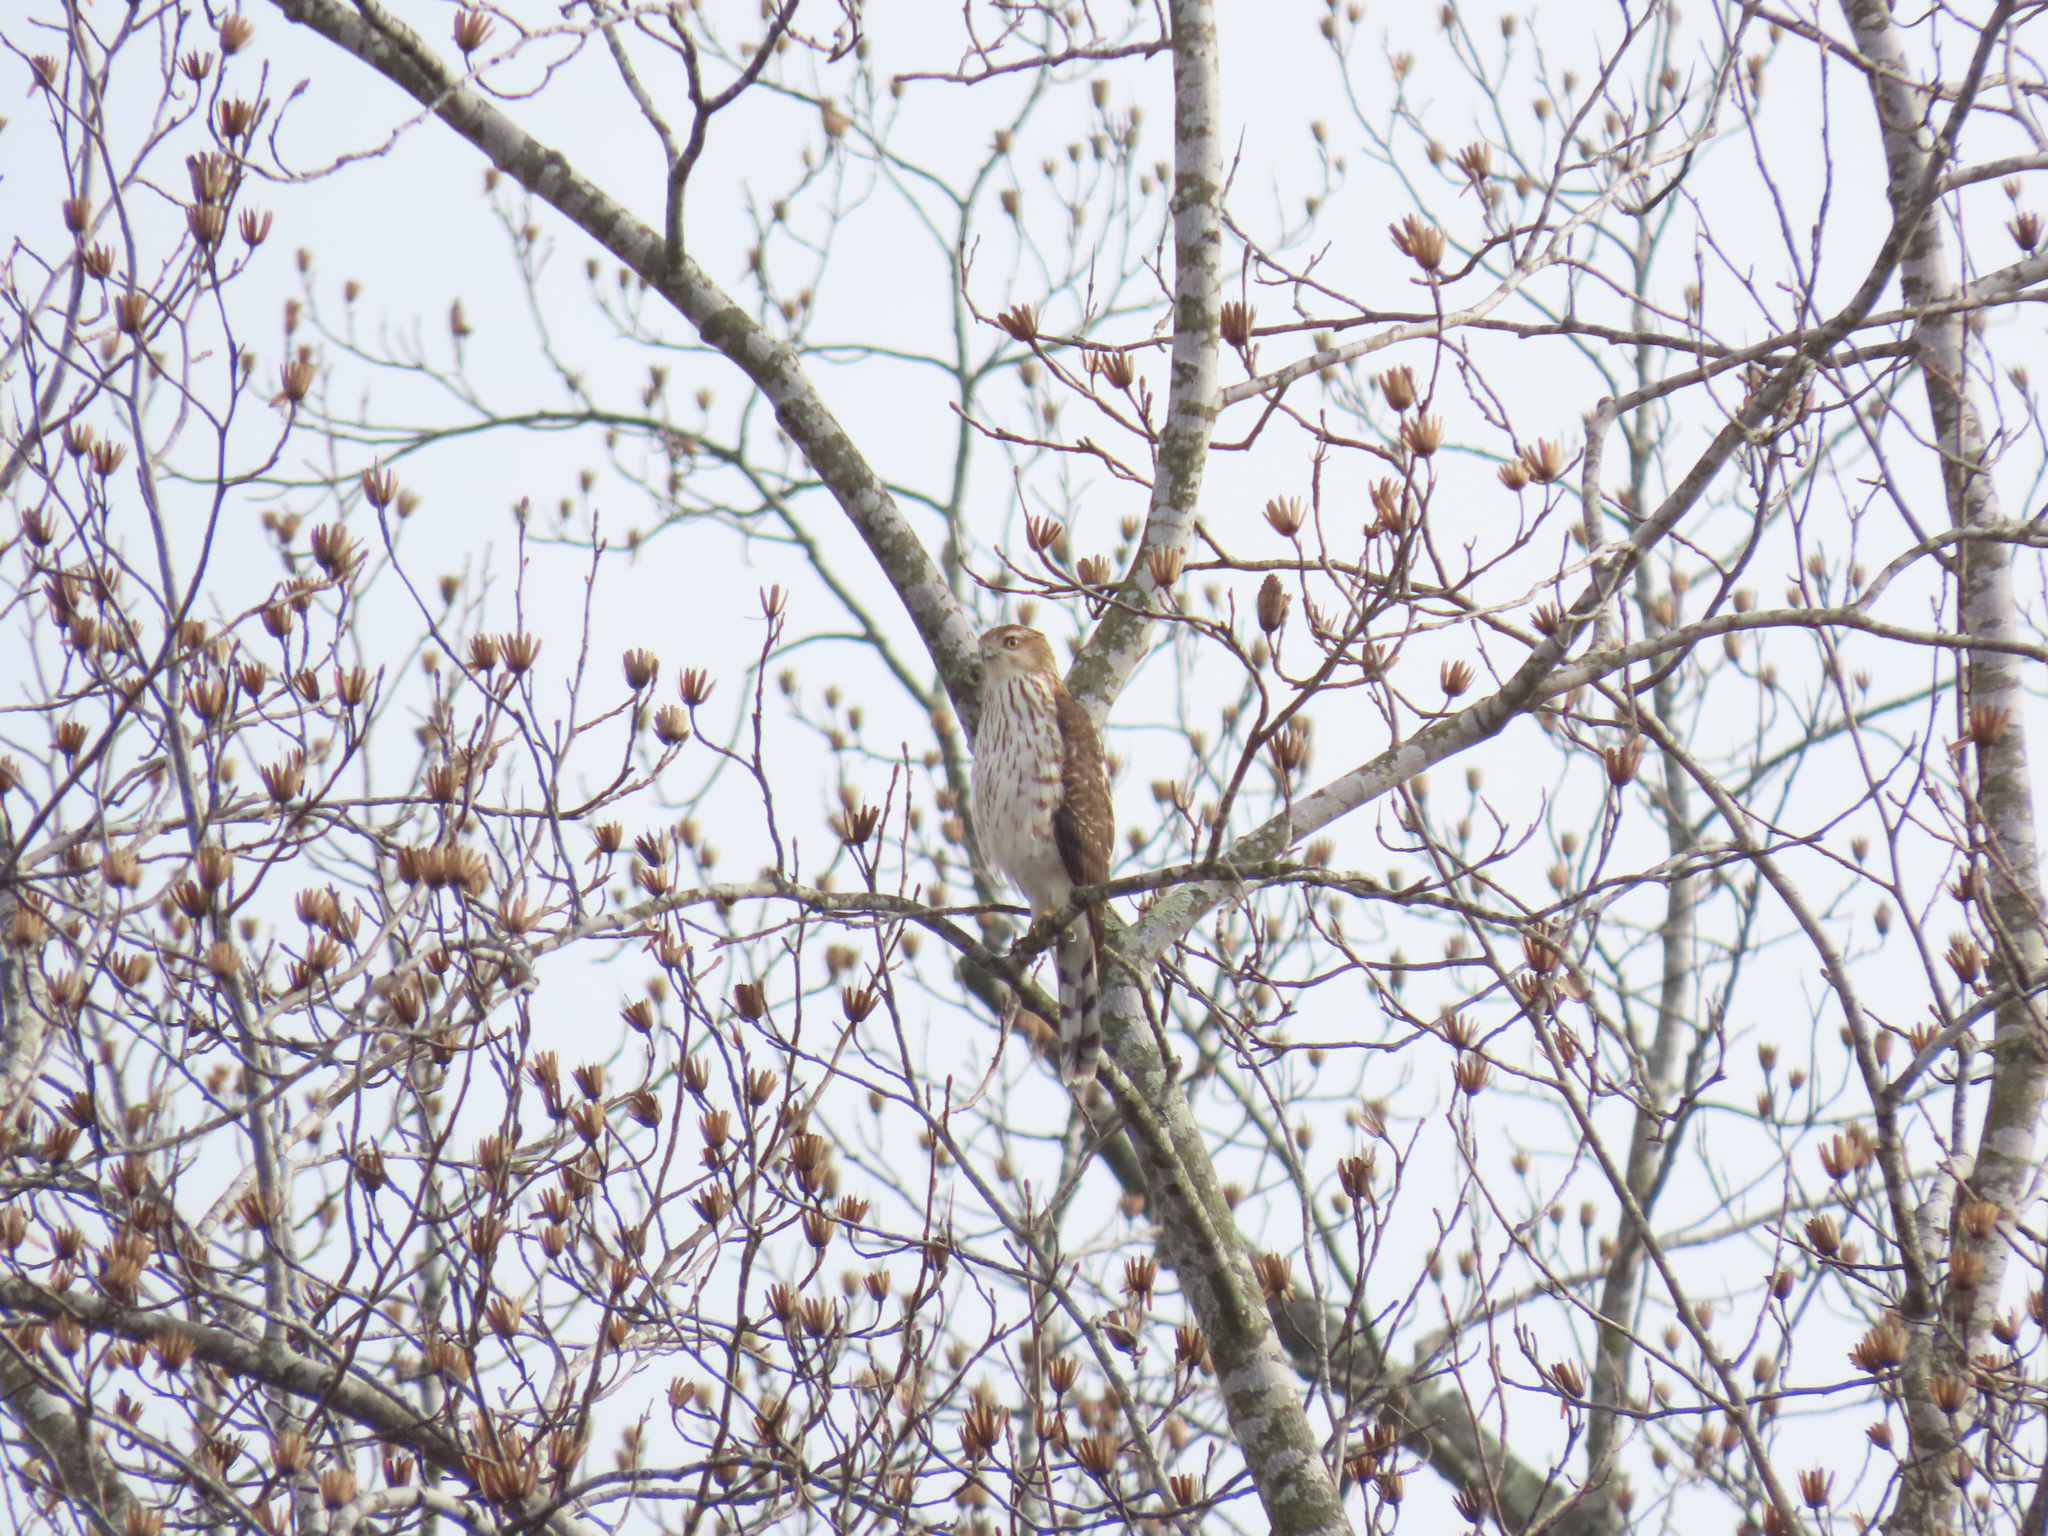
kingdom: Animalia
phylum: Chordata
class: Aves
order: Accipitriformes
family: Accipitridae
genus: Accipiter
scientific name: Accipiter cooperii
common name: Cooper's hawk
